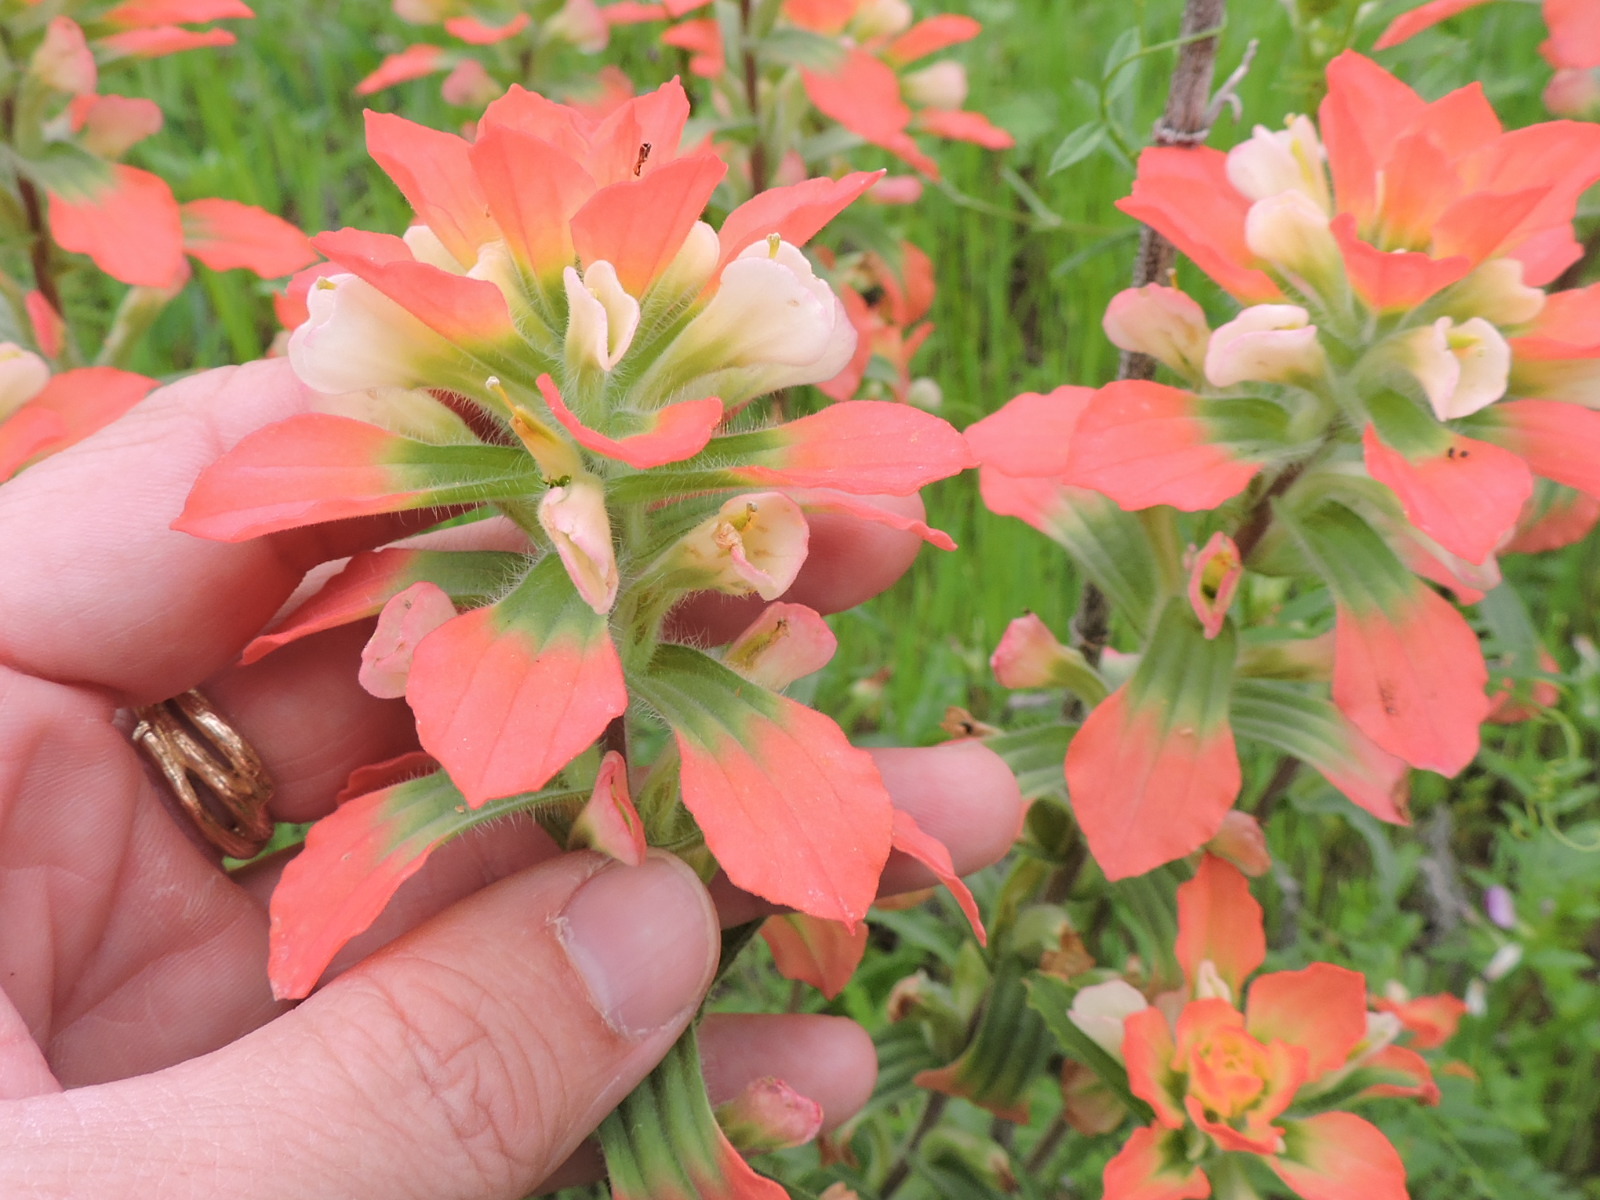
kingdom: Plantae
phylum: Tracheophyta
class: Magnoliopsida
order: Lamiales
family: Orobanchaceae
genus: Castilleja
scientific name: Castilleja indivisa
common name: Texas paintbrush
